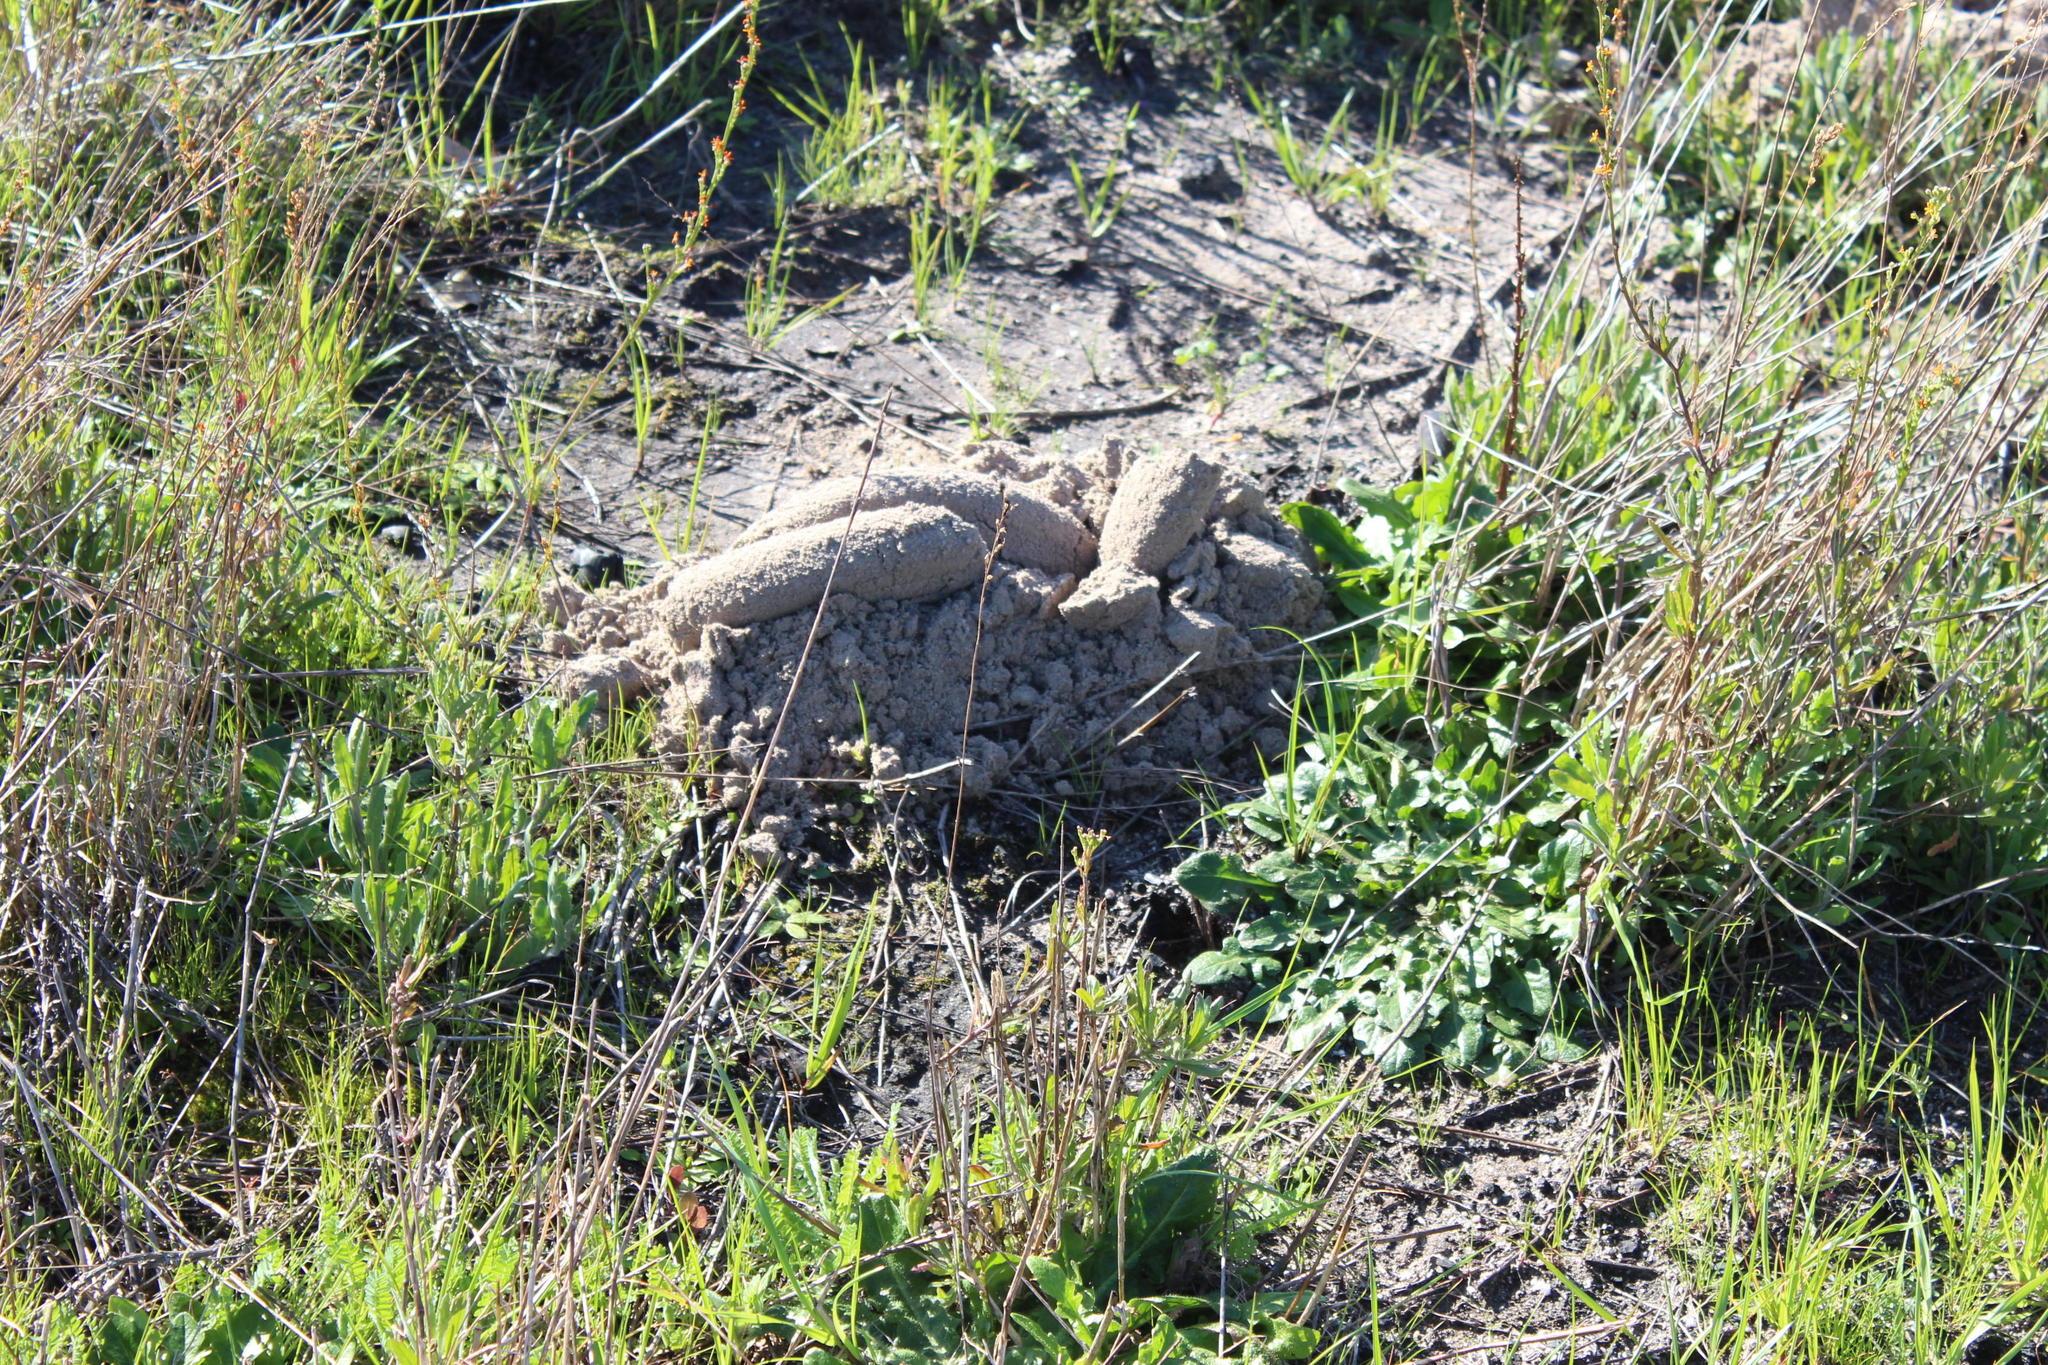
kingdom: Animalia
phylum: Chordata
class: Mammalia
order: Rodentia
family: Bathyergidae
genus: Bathyergus
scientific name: Bathyergus suillus
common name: Cape dune mole rat
